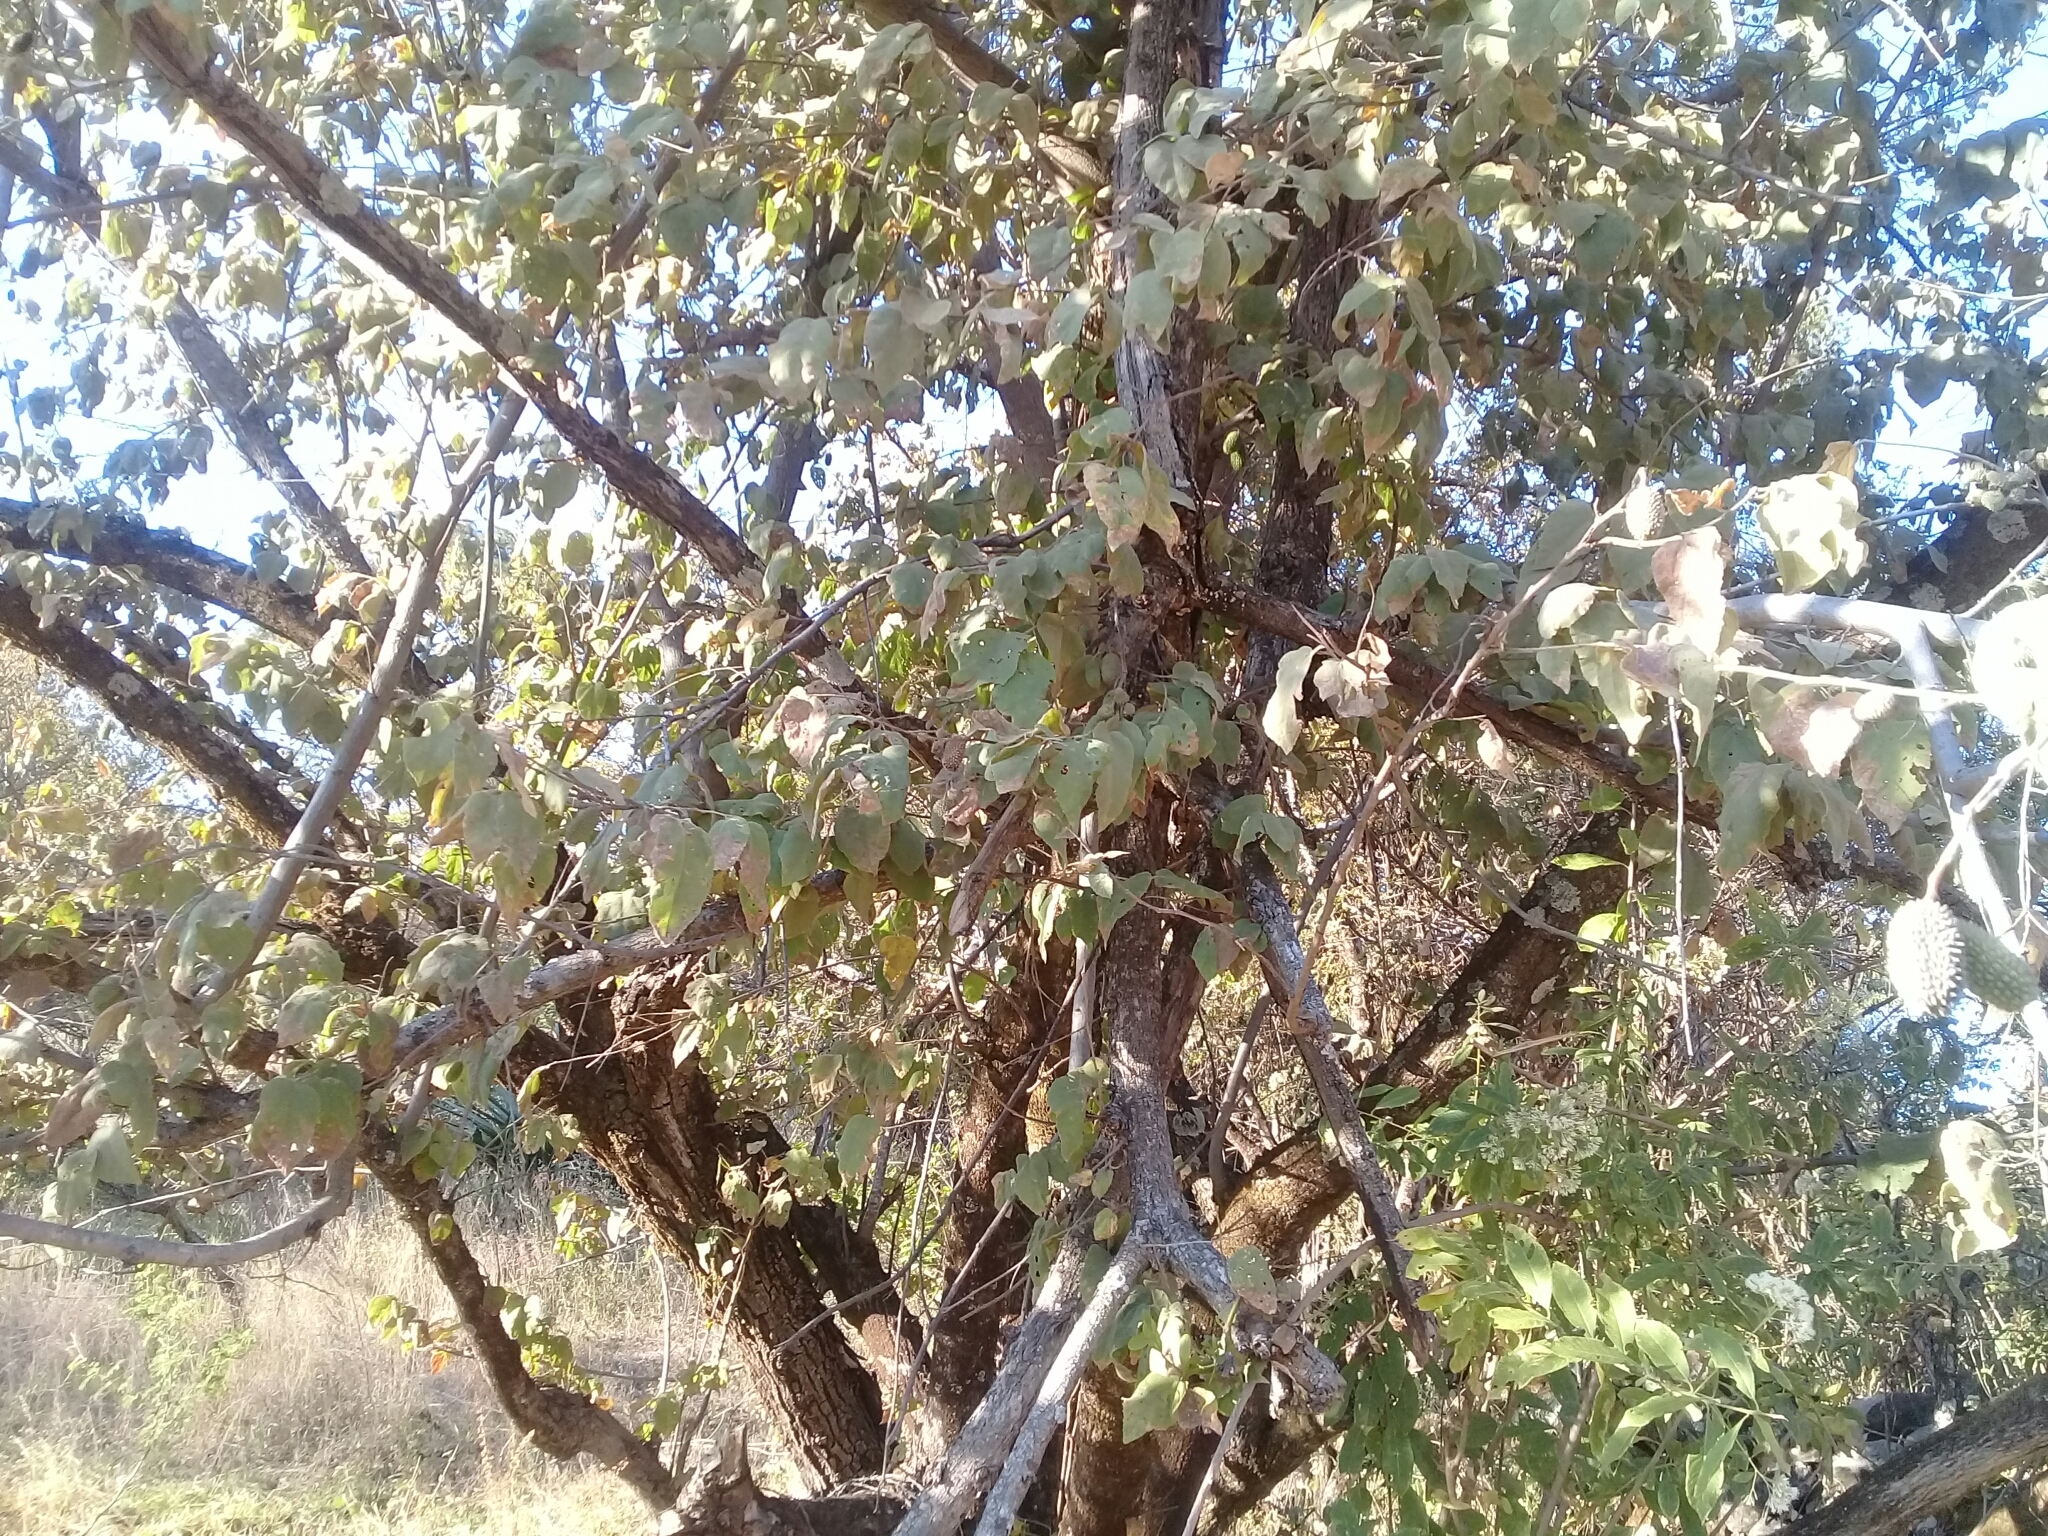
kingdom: Plantae
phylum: Tracheophyta
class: Magnoliopsida
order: Malvales
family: Malvaceae
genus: Guazuma
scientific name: Guazuma ulmifolia
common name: Bastard-cedar
